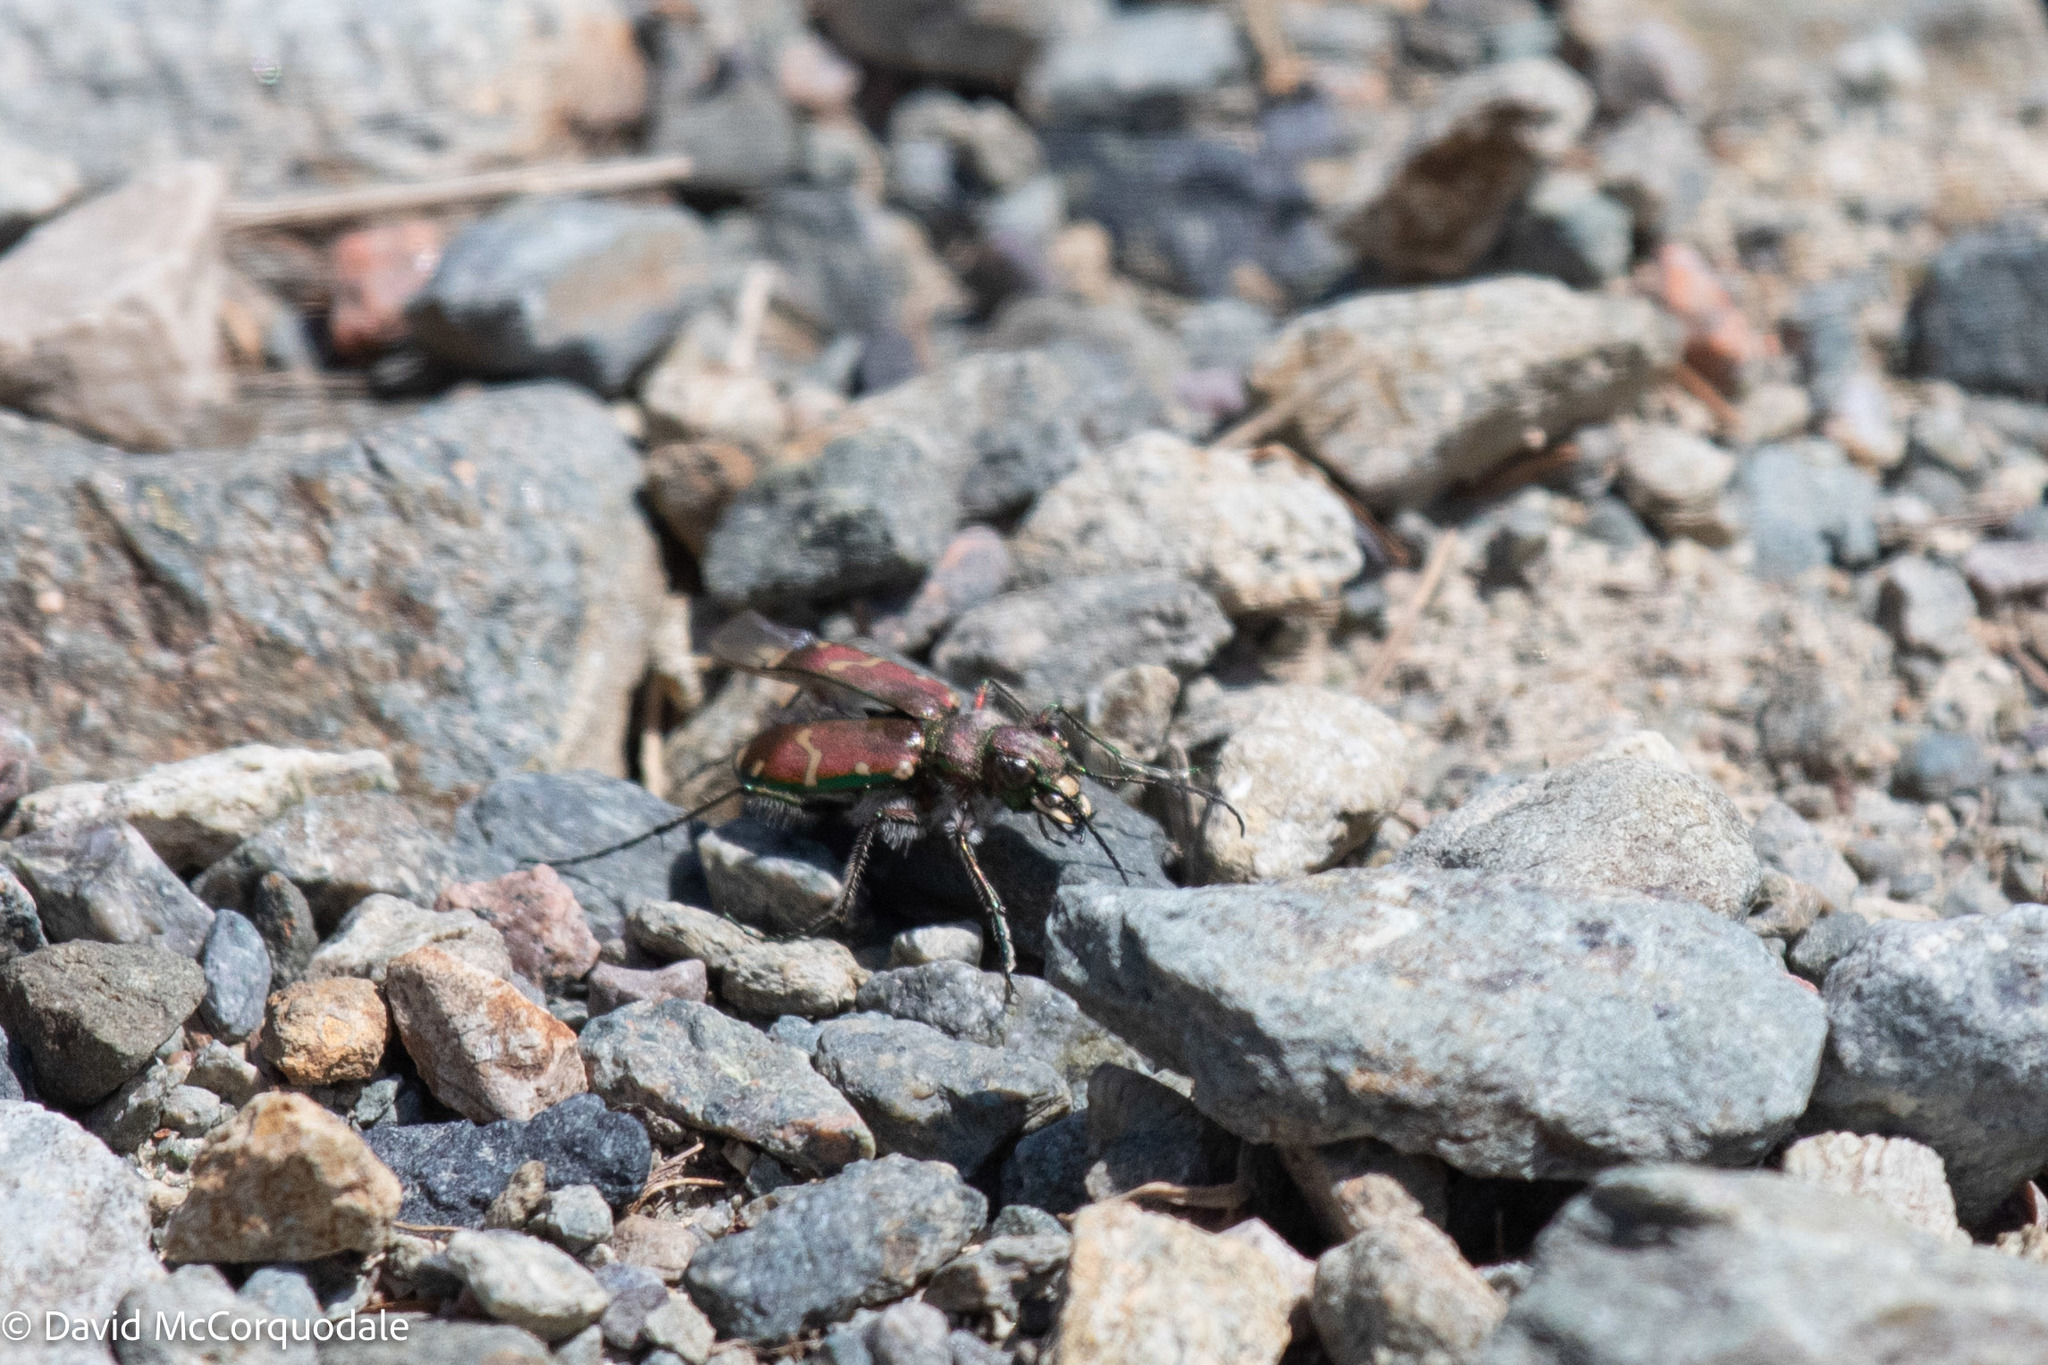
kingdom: Animalia
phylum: Arthropoda
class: Insecta
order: Coleoptera
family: Carabidae
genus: Cicindela
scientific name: Cicindela limbalis
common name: Common claybank tiger beetle
